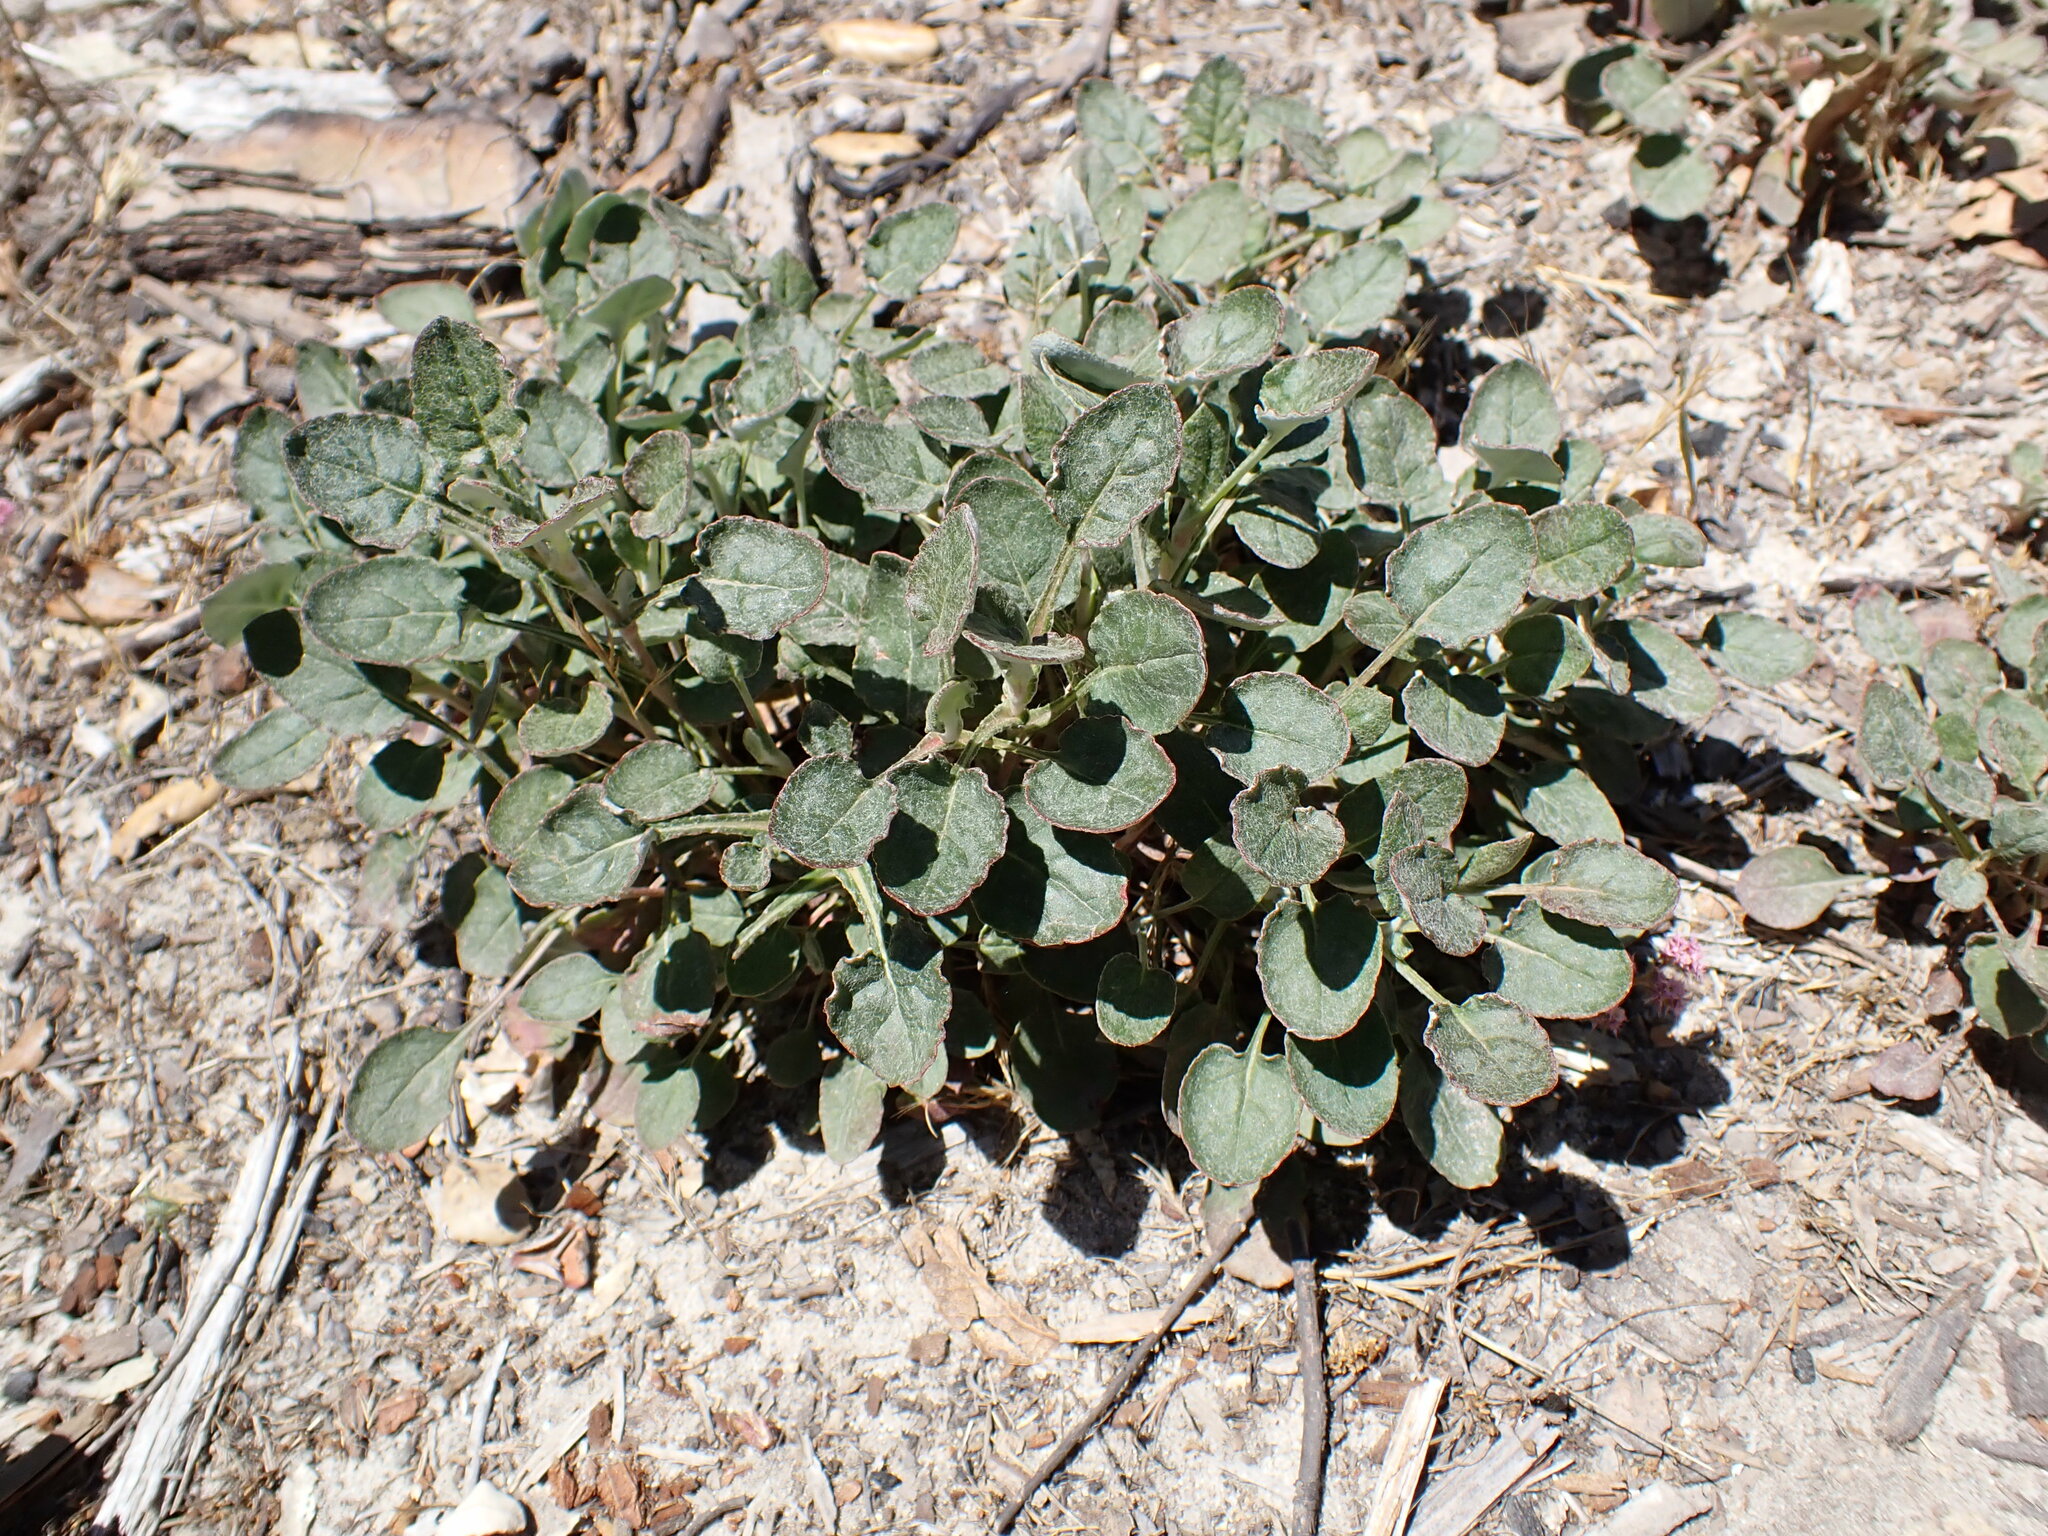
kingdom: Plantae
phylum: Tracheophyta
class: Magnoliopsida
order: Caryophyllales
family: Polygonaceae
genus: Eriogonum
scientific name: Eriogonum nudum
